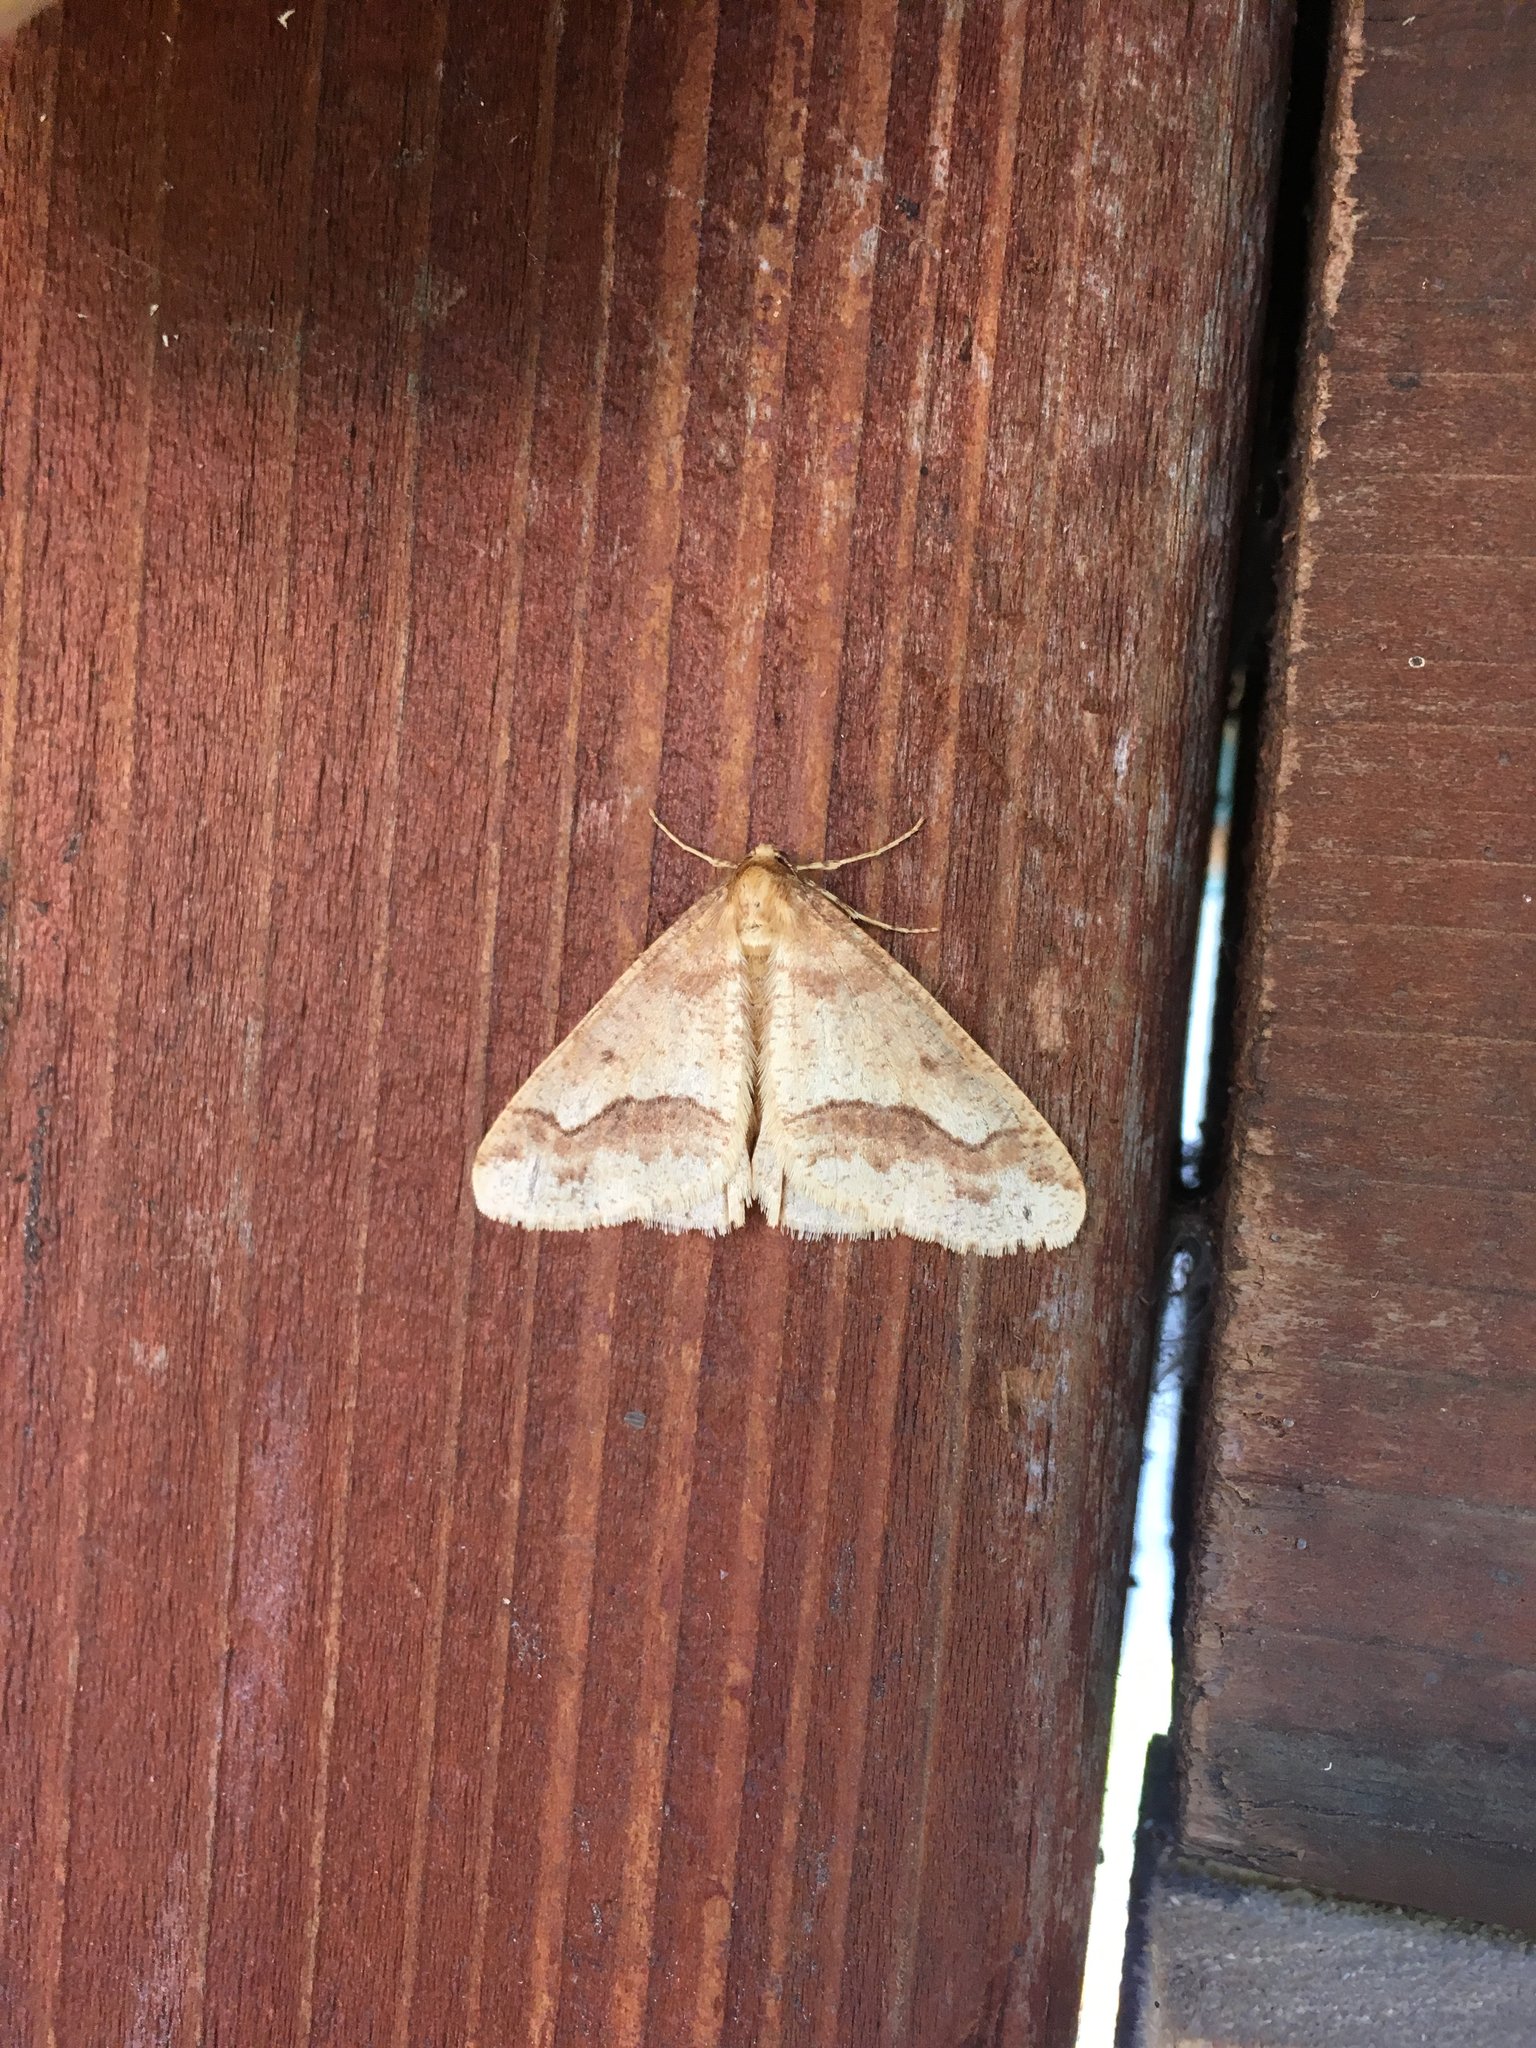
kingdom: Animalia
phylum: Arthropoda
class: Insecta
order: Lepidoptera
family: Geometridae
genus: Erannis
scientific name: Erannis tiliaria
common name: Linden looper
